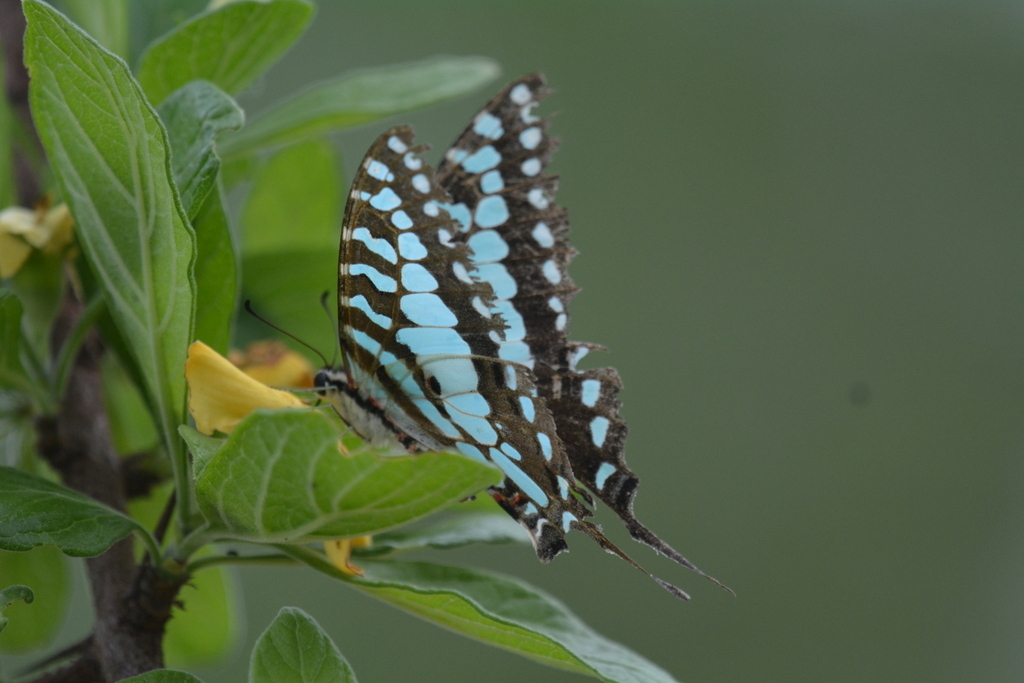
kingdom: Animalia
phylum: Arthropoda
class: Insecta
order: Lepidoptera
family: Papilionidae
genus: Graphium
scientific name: Graphium antheus
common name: Large striped swordtail
